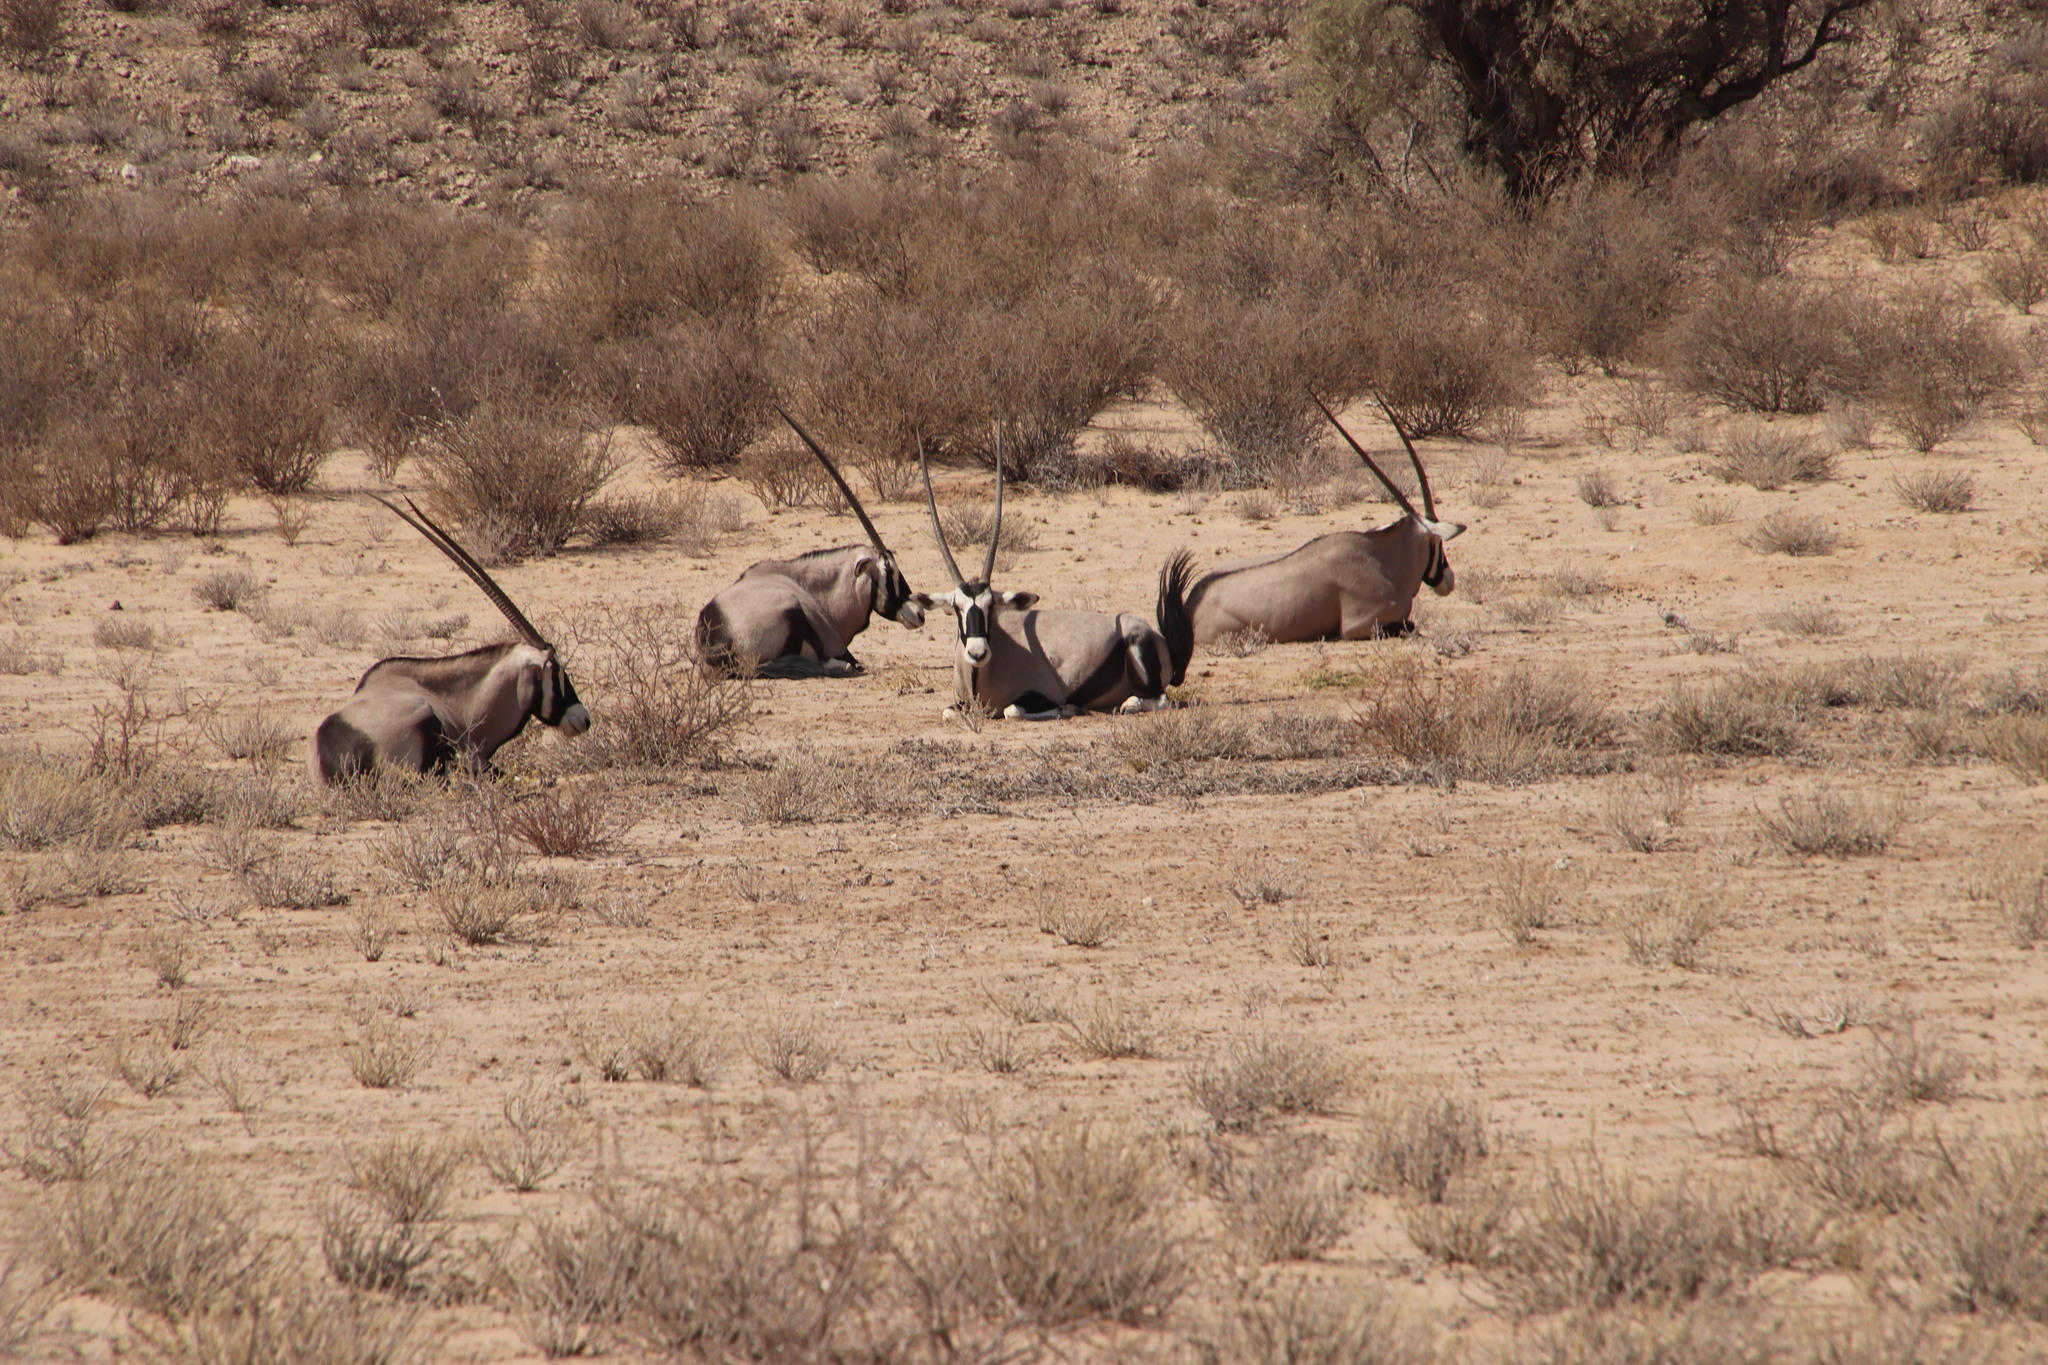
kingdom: Animalia
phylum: Chordata
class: Mammalia
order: Artiodactyla
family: Bovidae
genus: Oryx
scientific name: Oryx gazella
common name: Gemsbok
